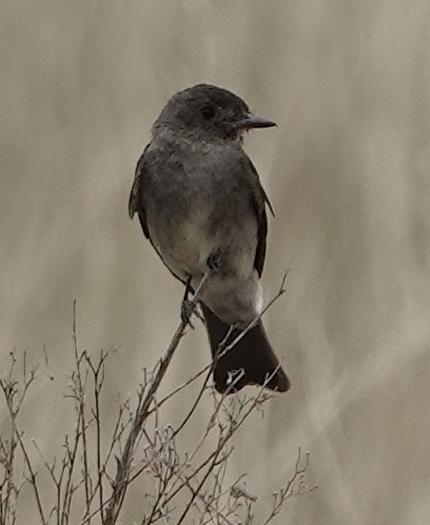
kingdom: Animalia
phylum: Chordata
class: Aves
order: Passeriformes
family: Tyrannidae
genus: Contopus
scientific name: Contopus sordidulus
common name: Western wood-pewee
